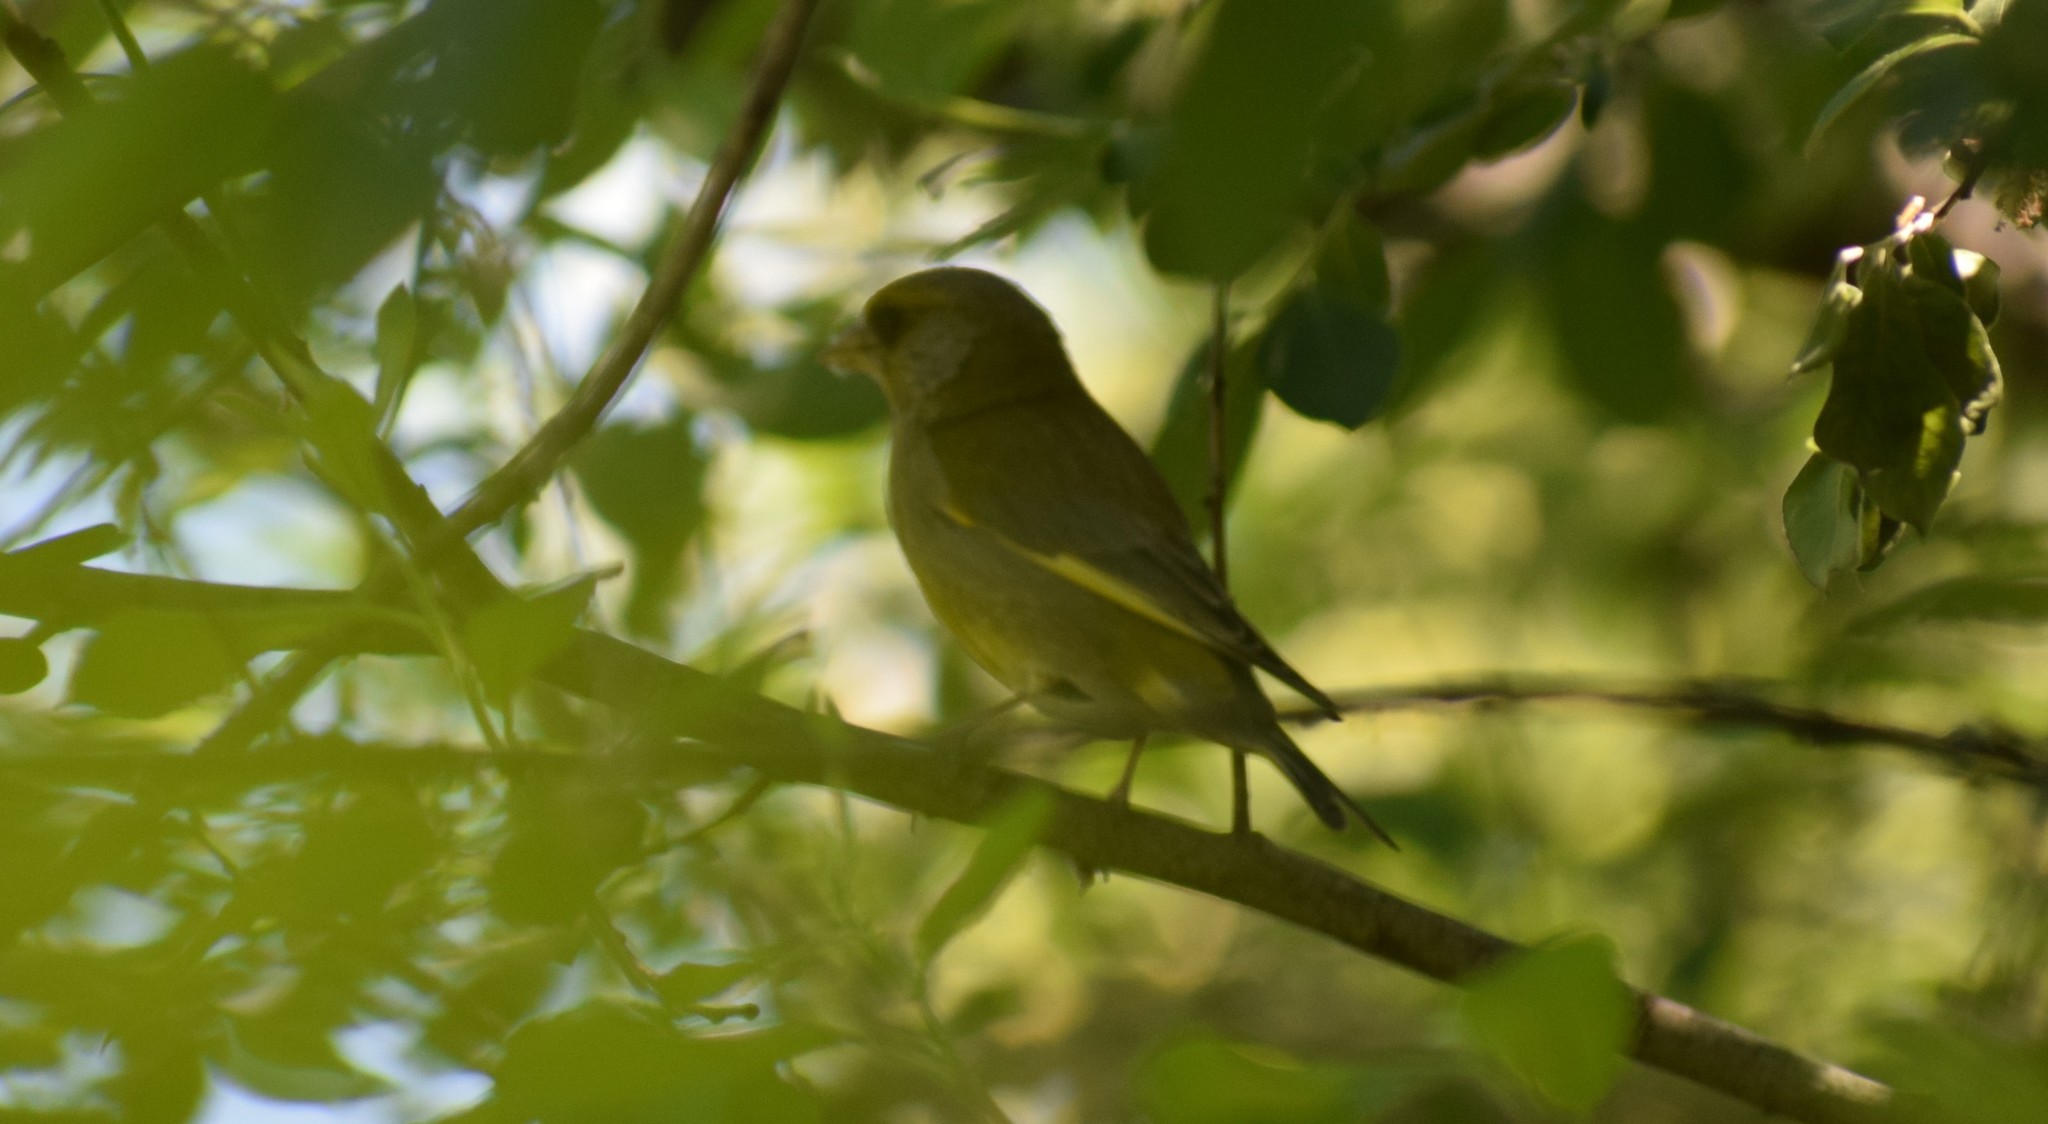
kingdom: Plantae
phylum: Tracheophyta
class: Liliopsida
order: Poales
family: Poaceae
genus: Chloris
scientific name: Chloris chloris
